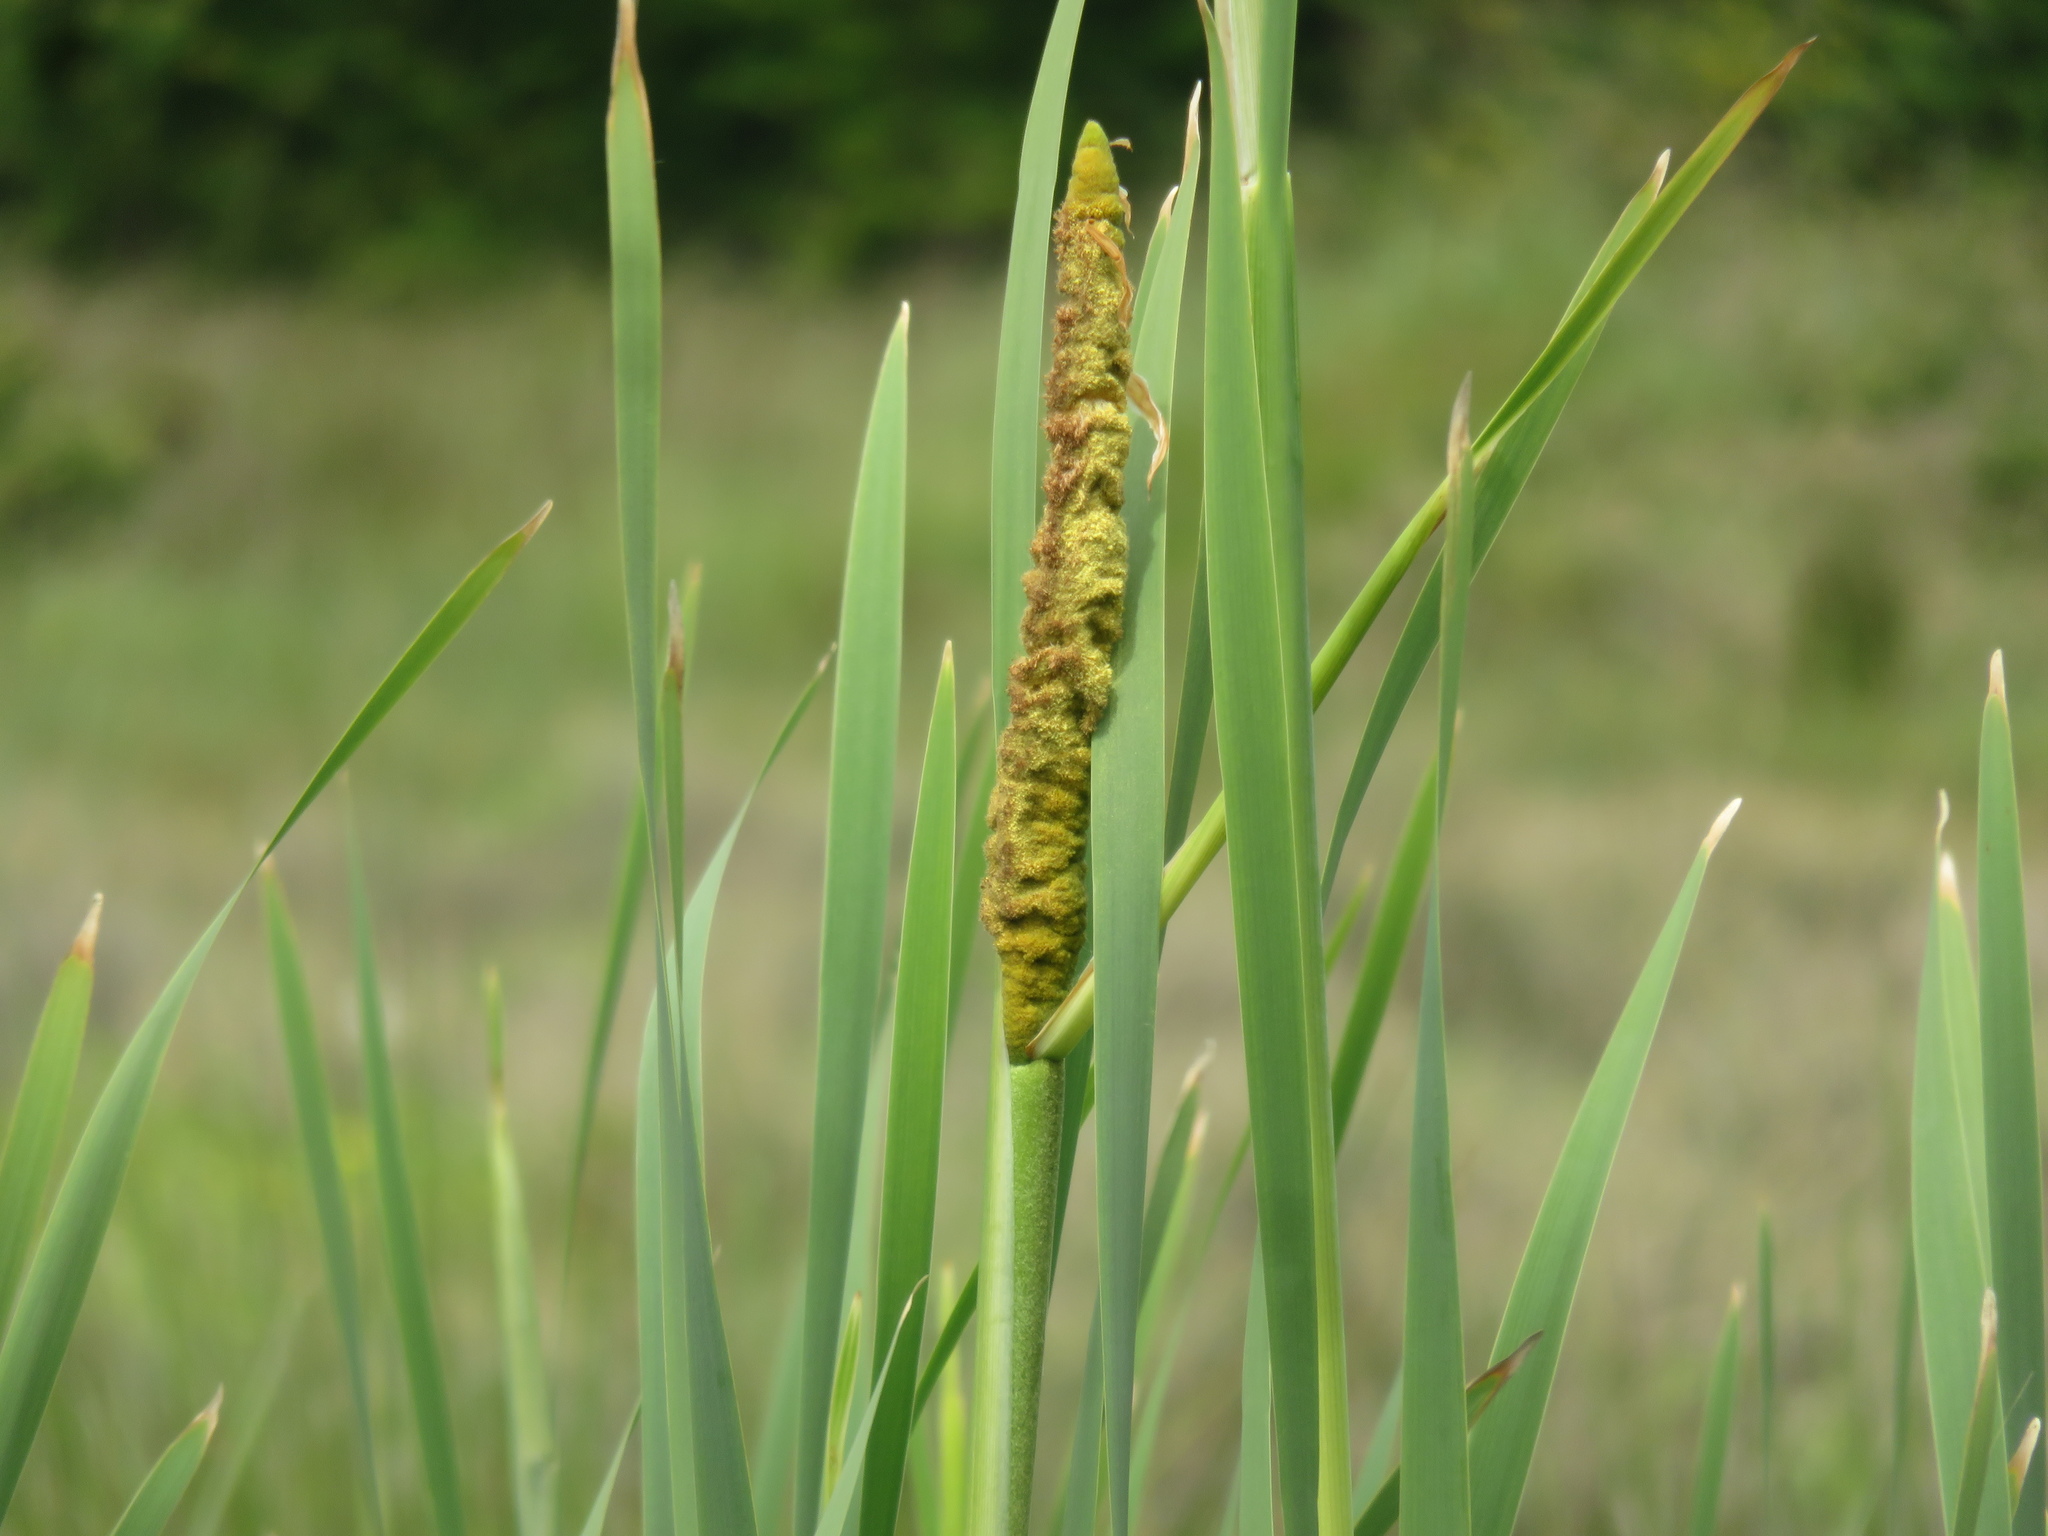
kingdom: Plantae
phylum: Tracheophyta
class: Liliopsida
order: Poales
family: Typhaceae
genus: Typha
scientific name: Typha angustifolia
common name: Lesser bulrush
